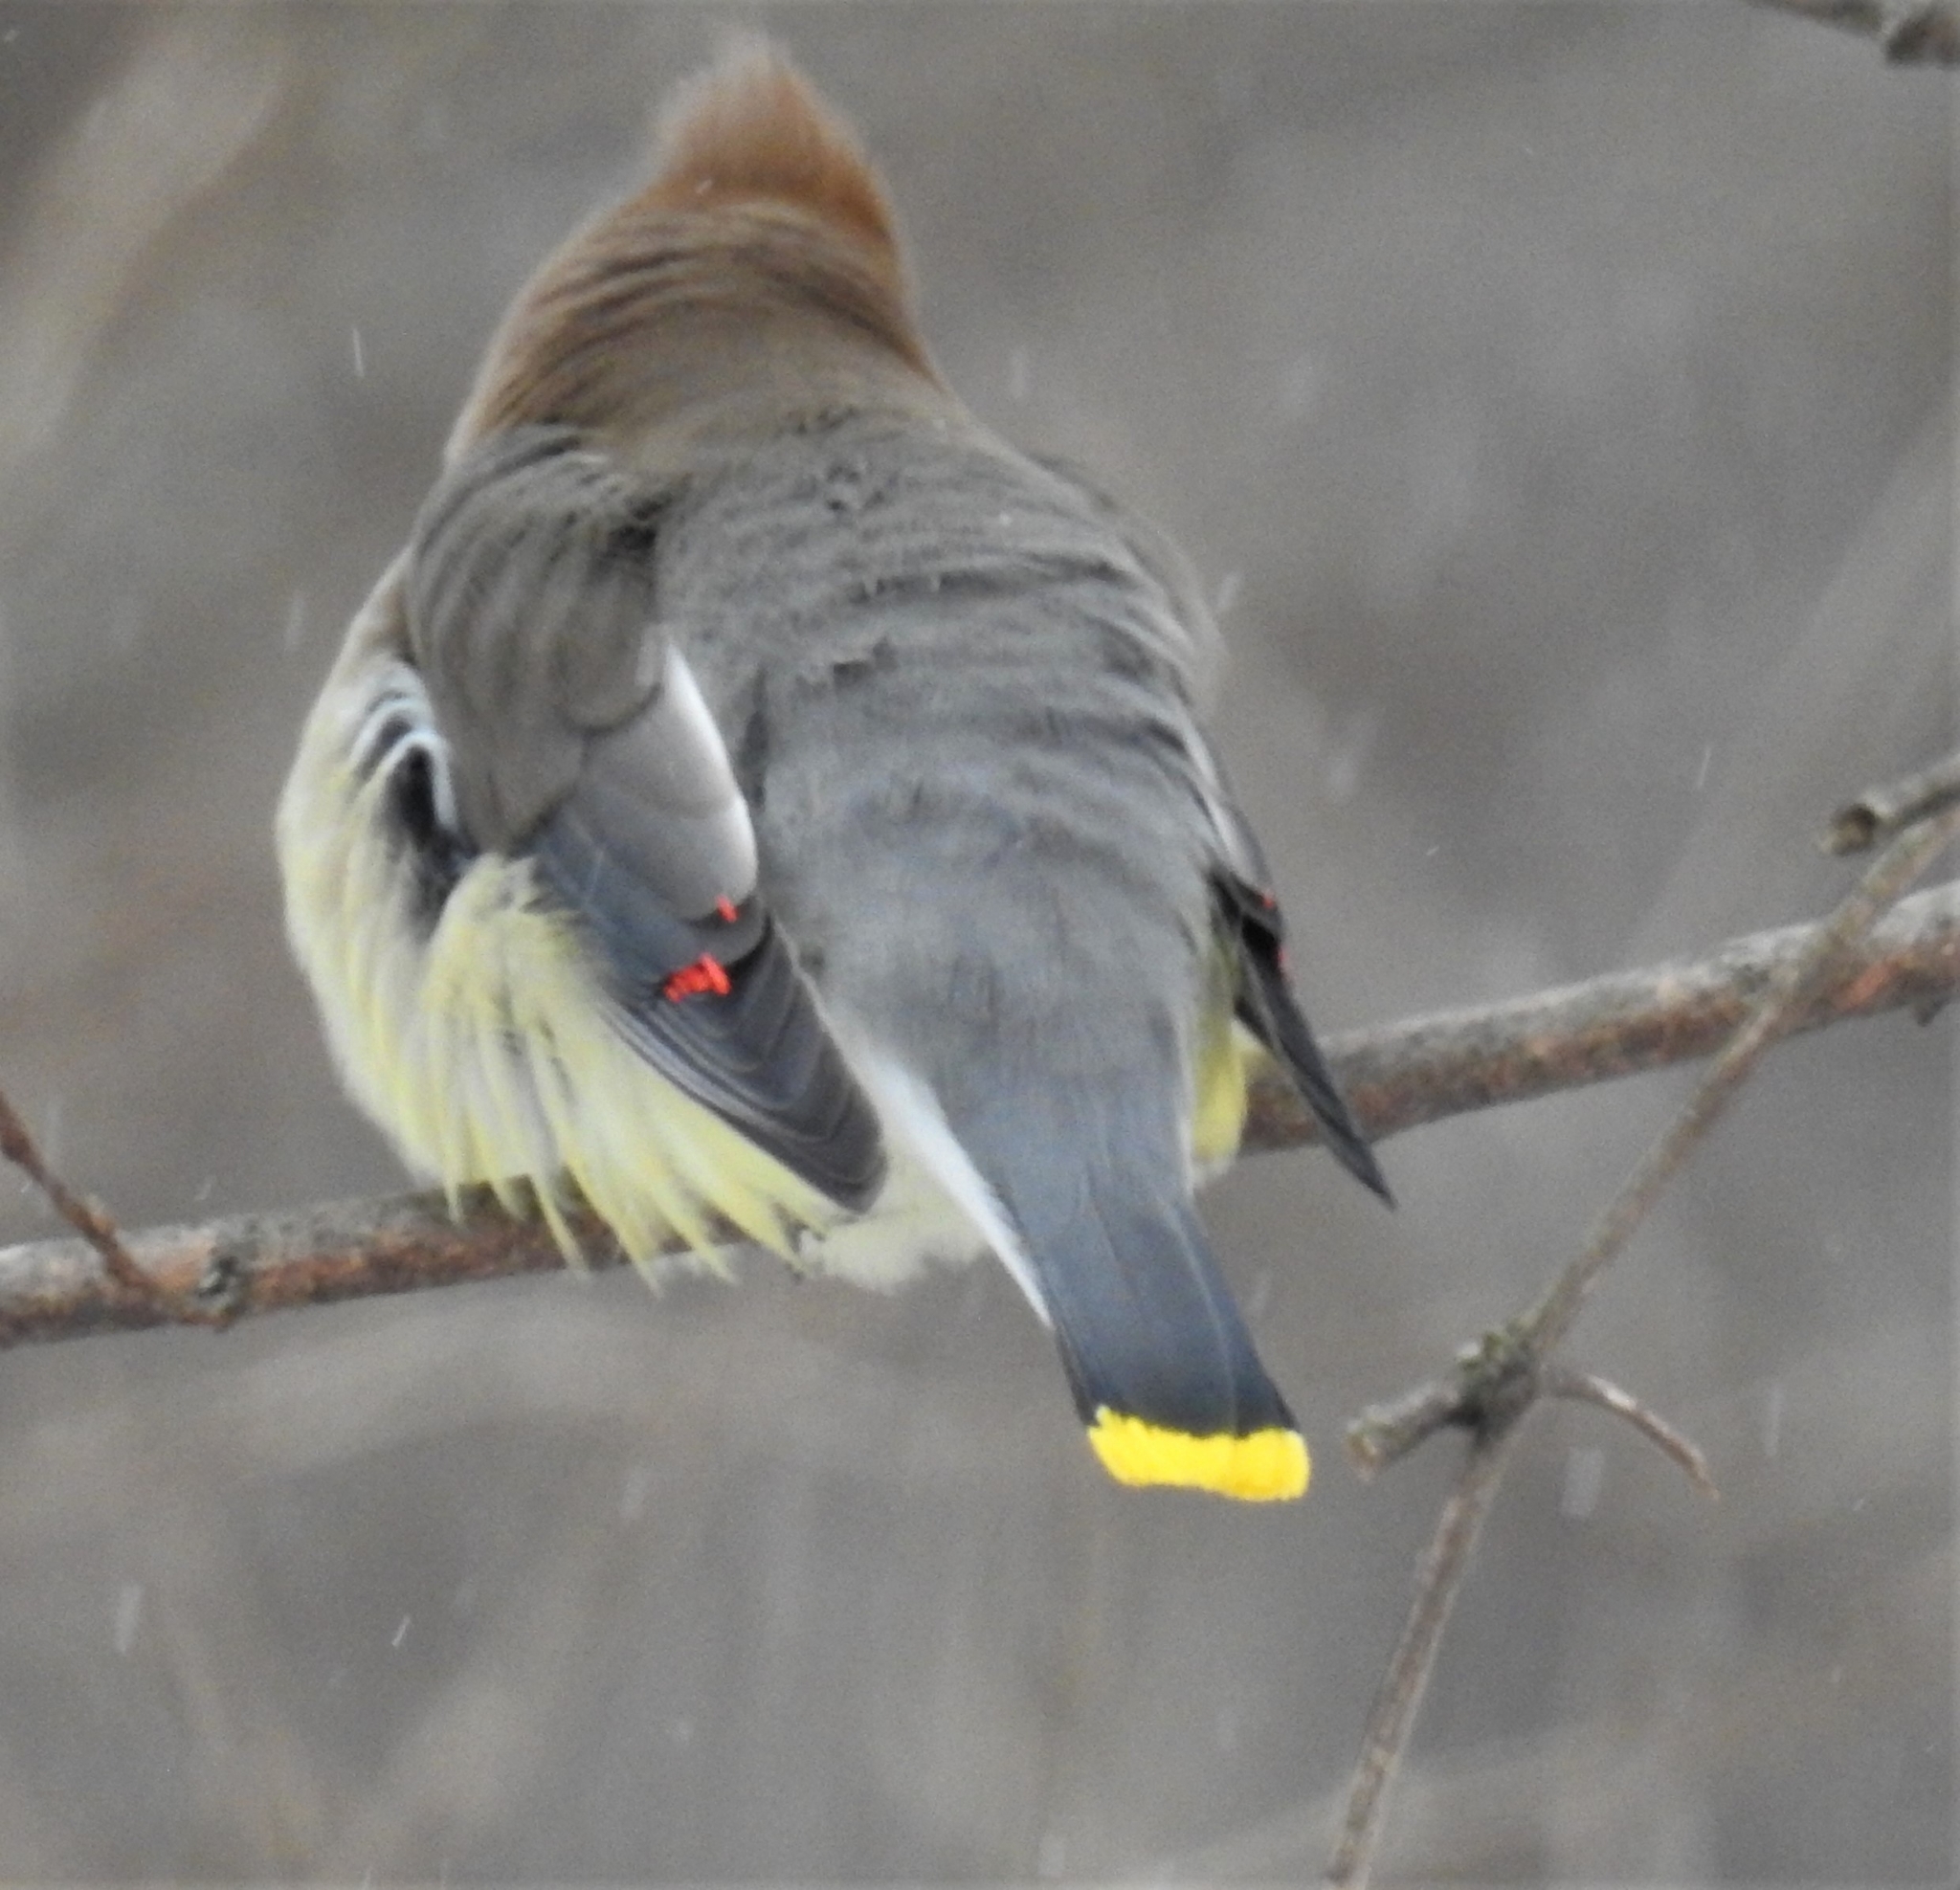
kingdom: Animalia
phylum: Chordata
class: Aves
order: Passeriformes
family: Bombycillidae
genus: Bombycilla
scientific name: Bombycilla cedrorum
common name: Cedar waxwing
